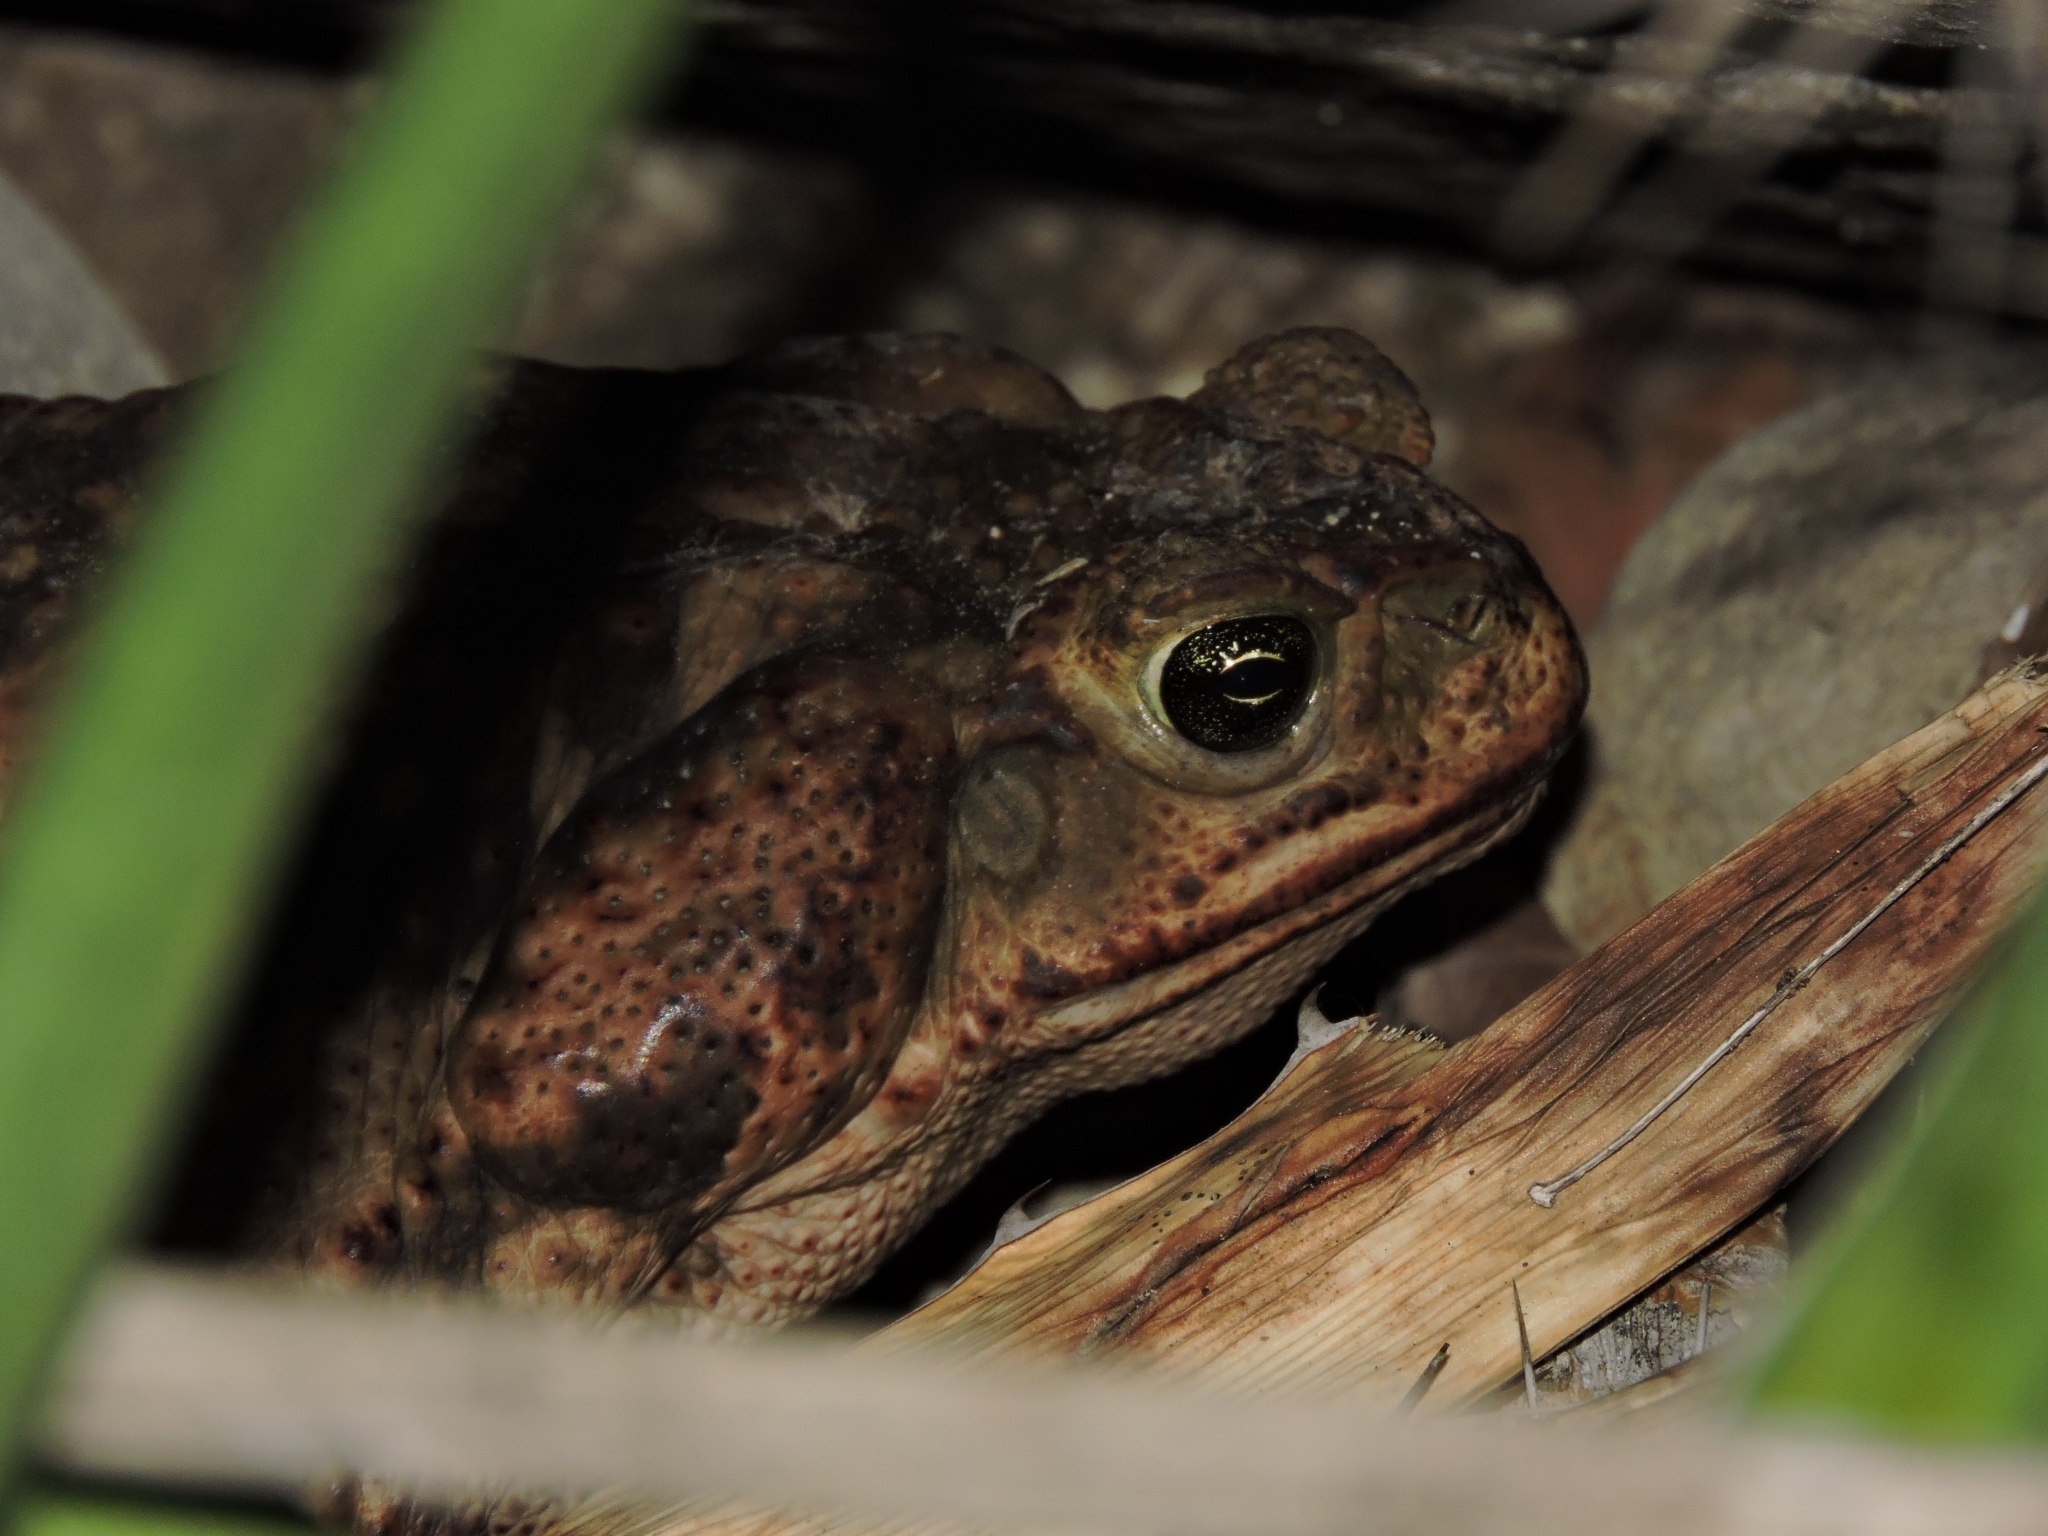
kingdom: Animalia
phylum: Chordata
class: Amphibia
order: Anura
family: Bufonidae
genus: Rhinella
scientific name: Rhinella horribilis
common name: Mesoamerican cane toad
